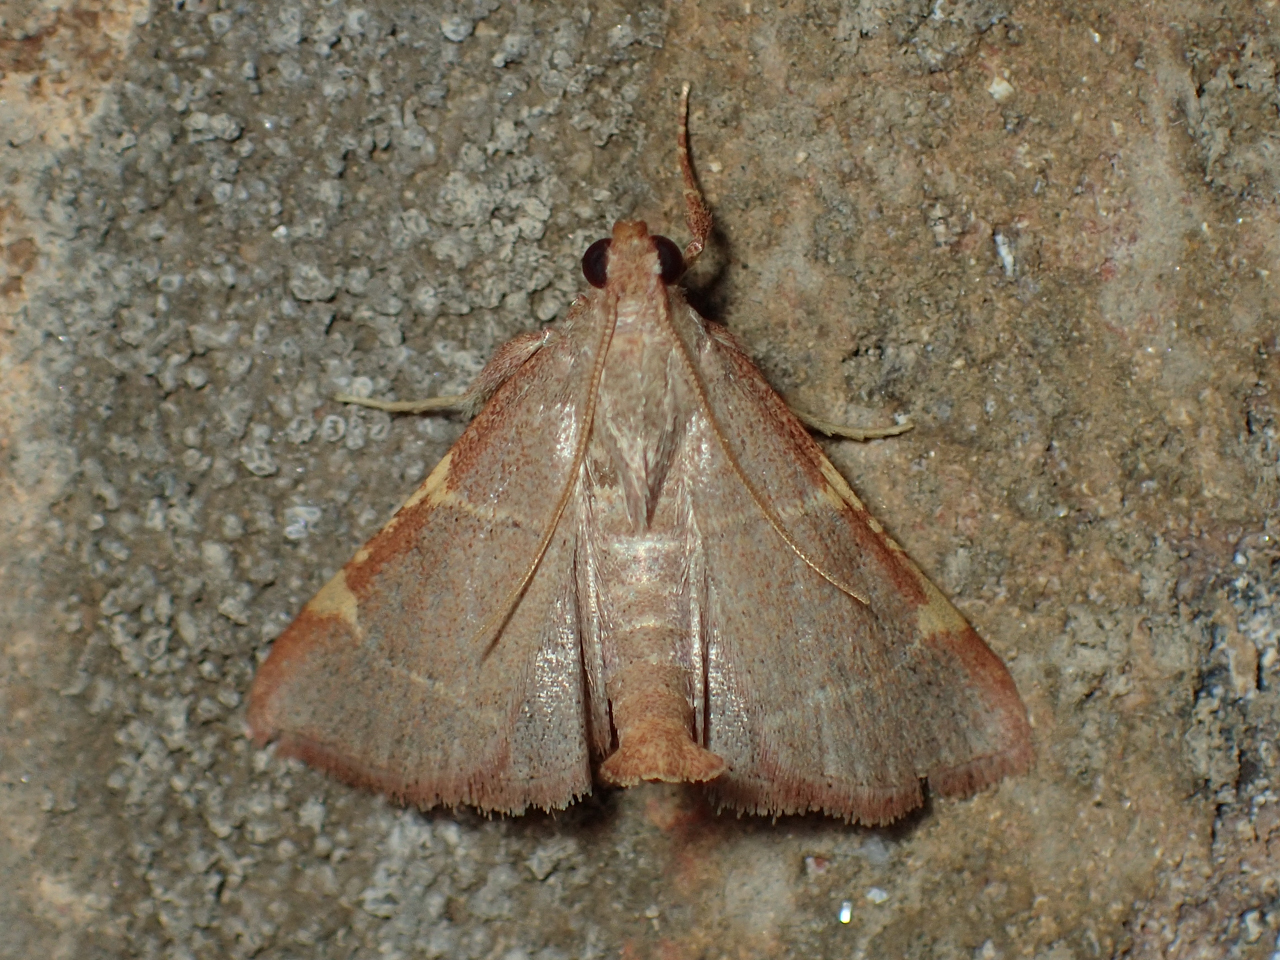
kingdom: Animalia
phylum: Arthropoda
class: Insecta
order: Lepidoptera
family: Pyralidae
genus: Hypsopygia
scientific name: Hypsopygia binodulalis
